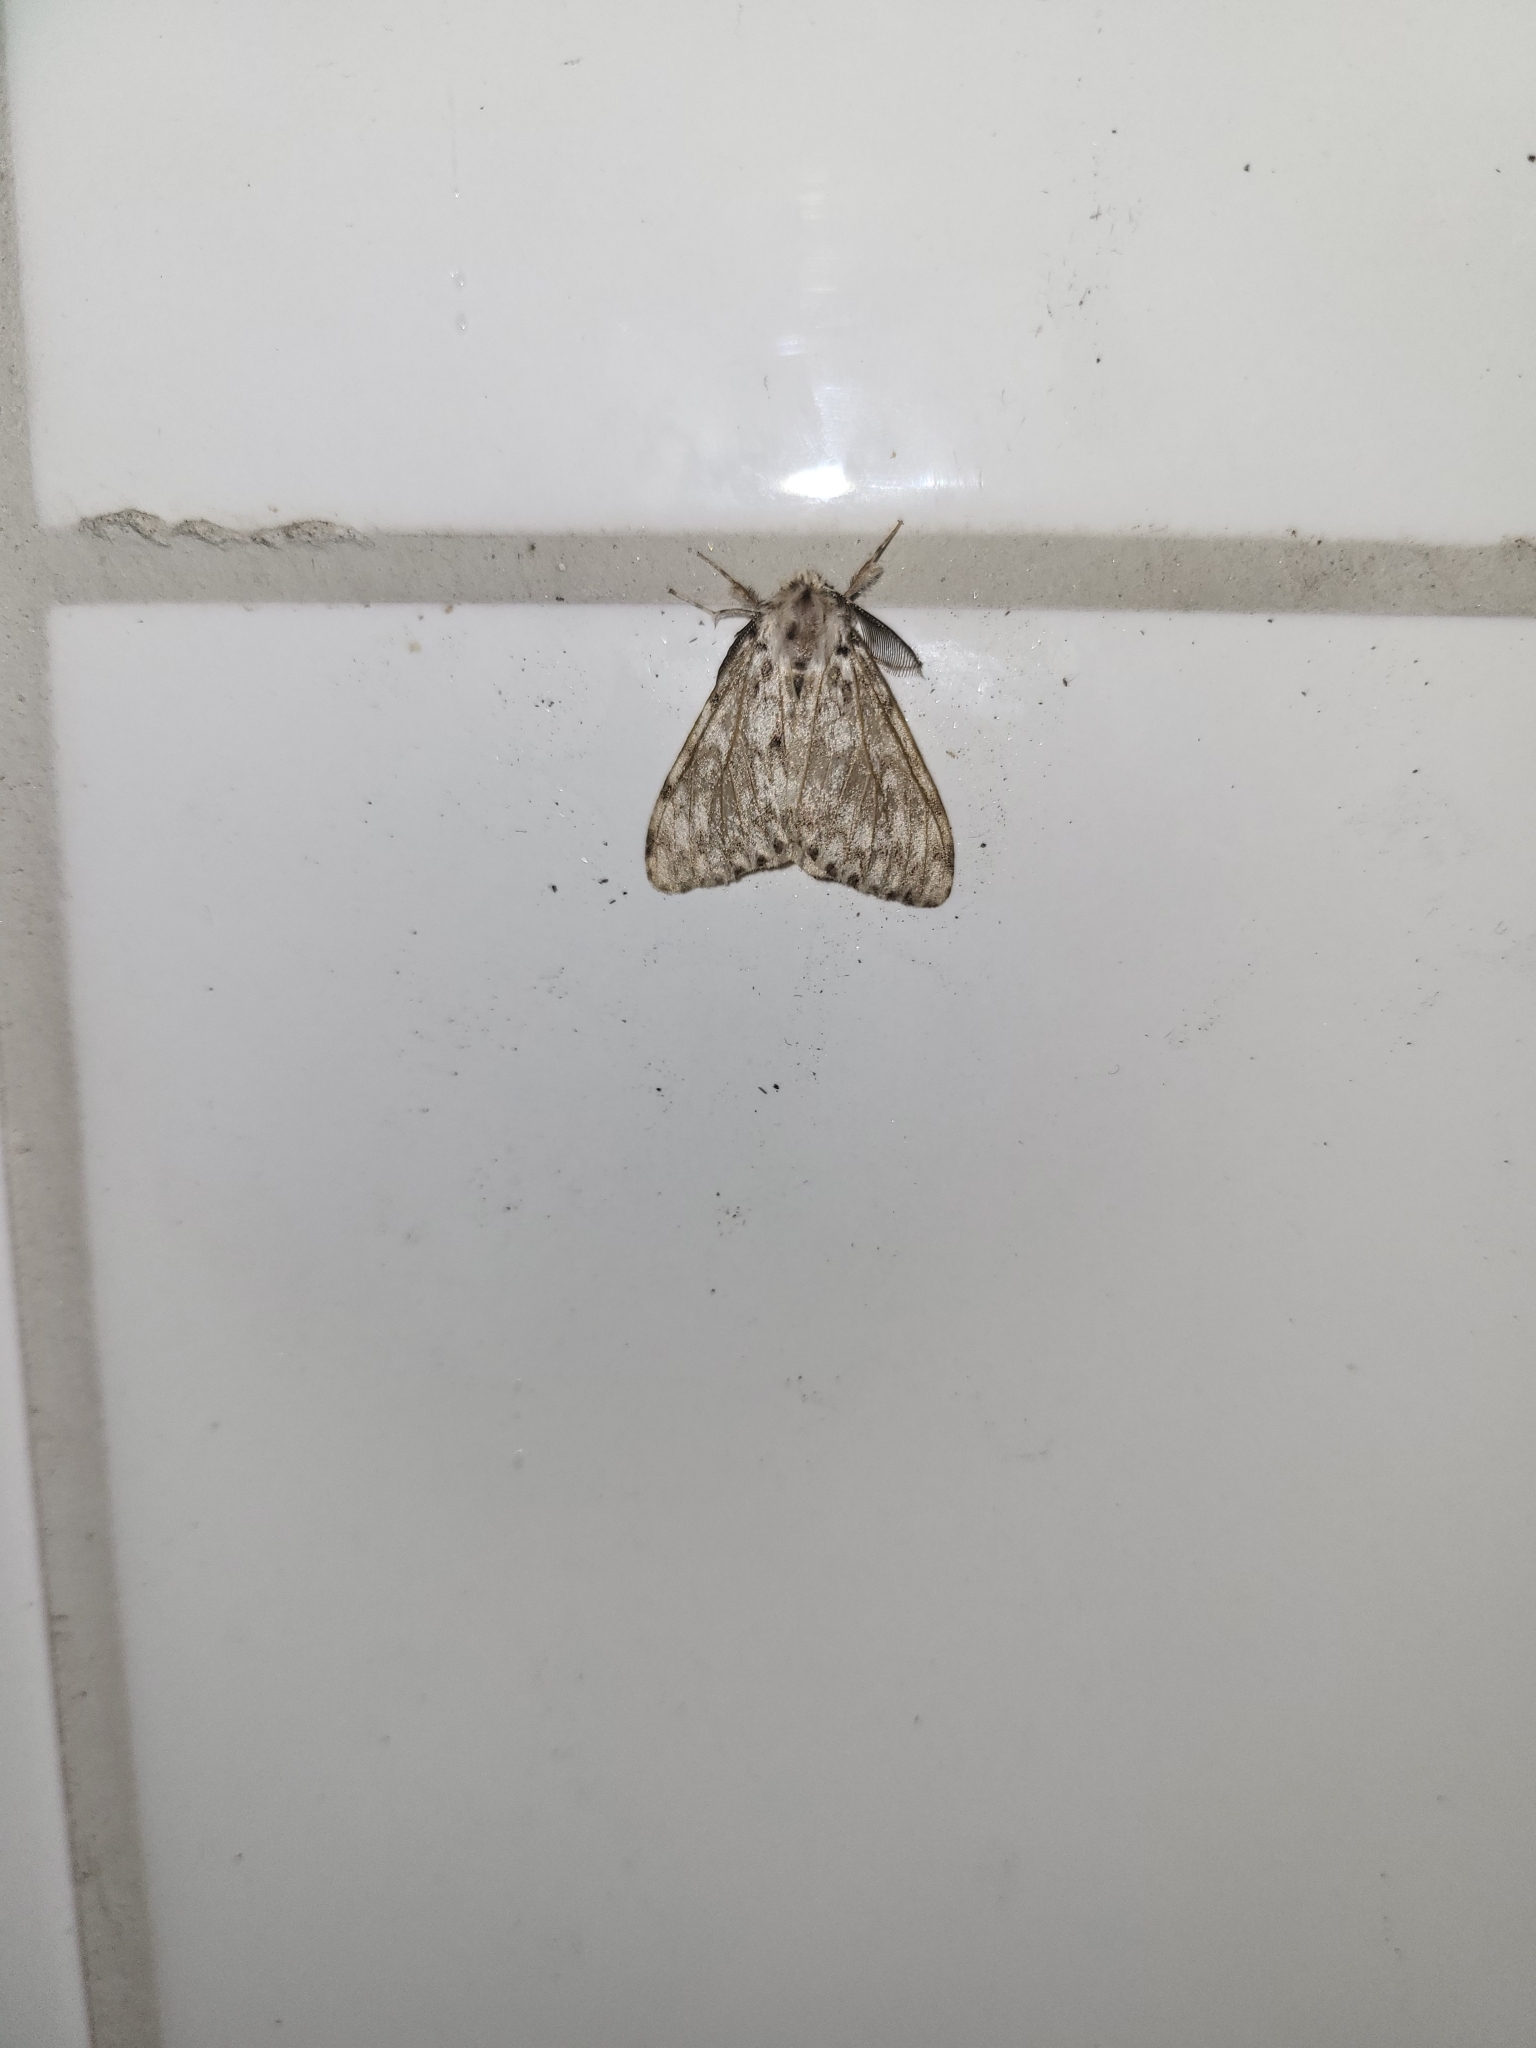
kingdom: Animalia
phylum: Arthropoda
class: Insecta
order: Lepidoptera
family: Erebidae
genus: Lymantria
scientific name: Lymantria monacha
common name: Black arches
